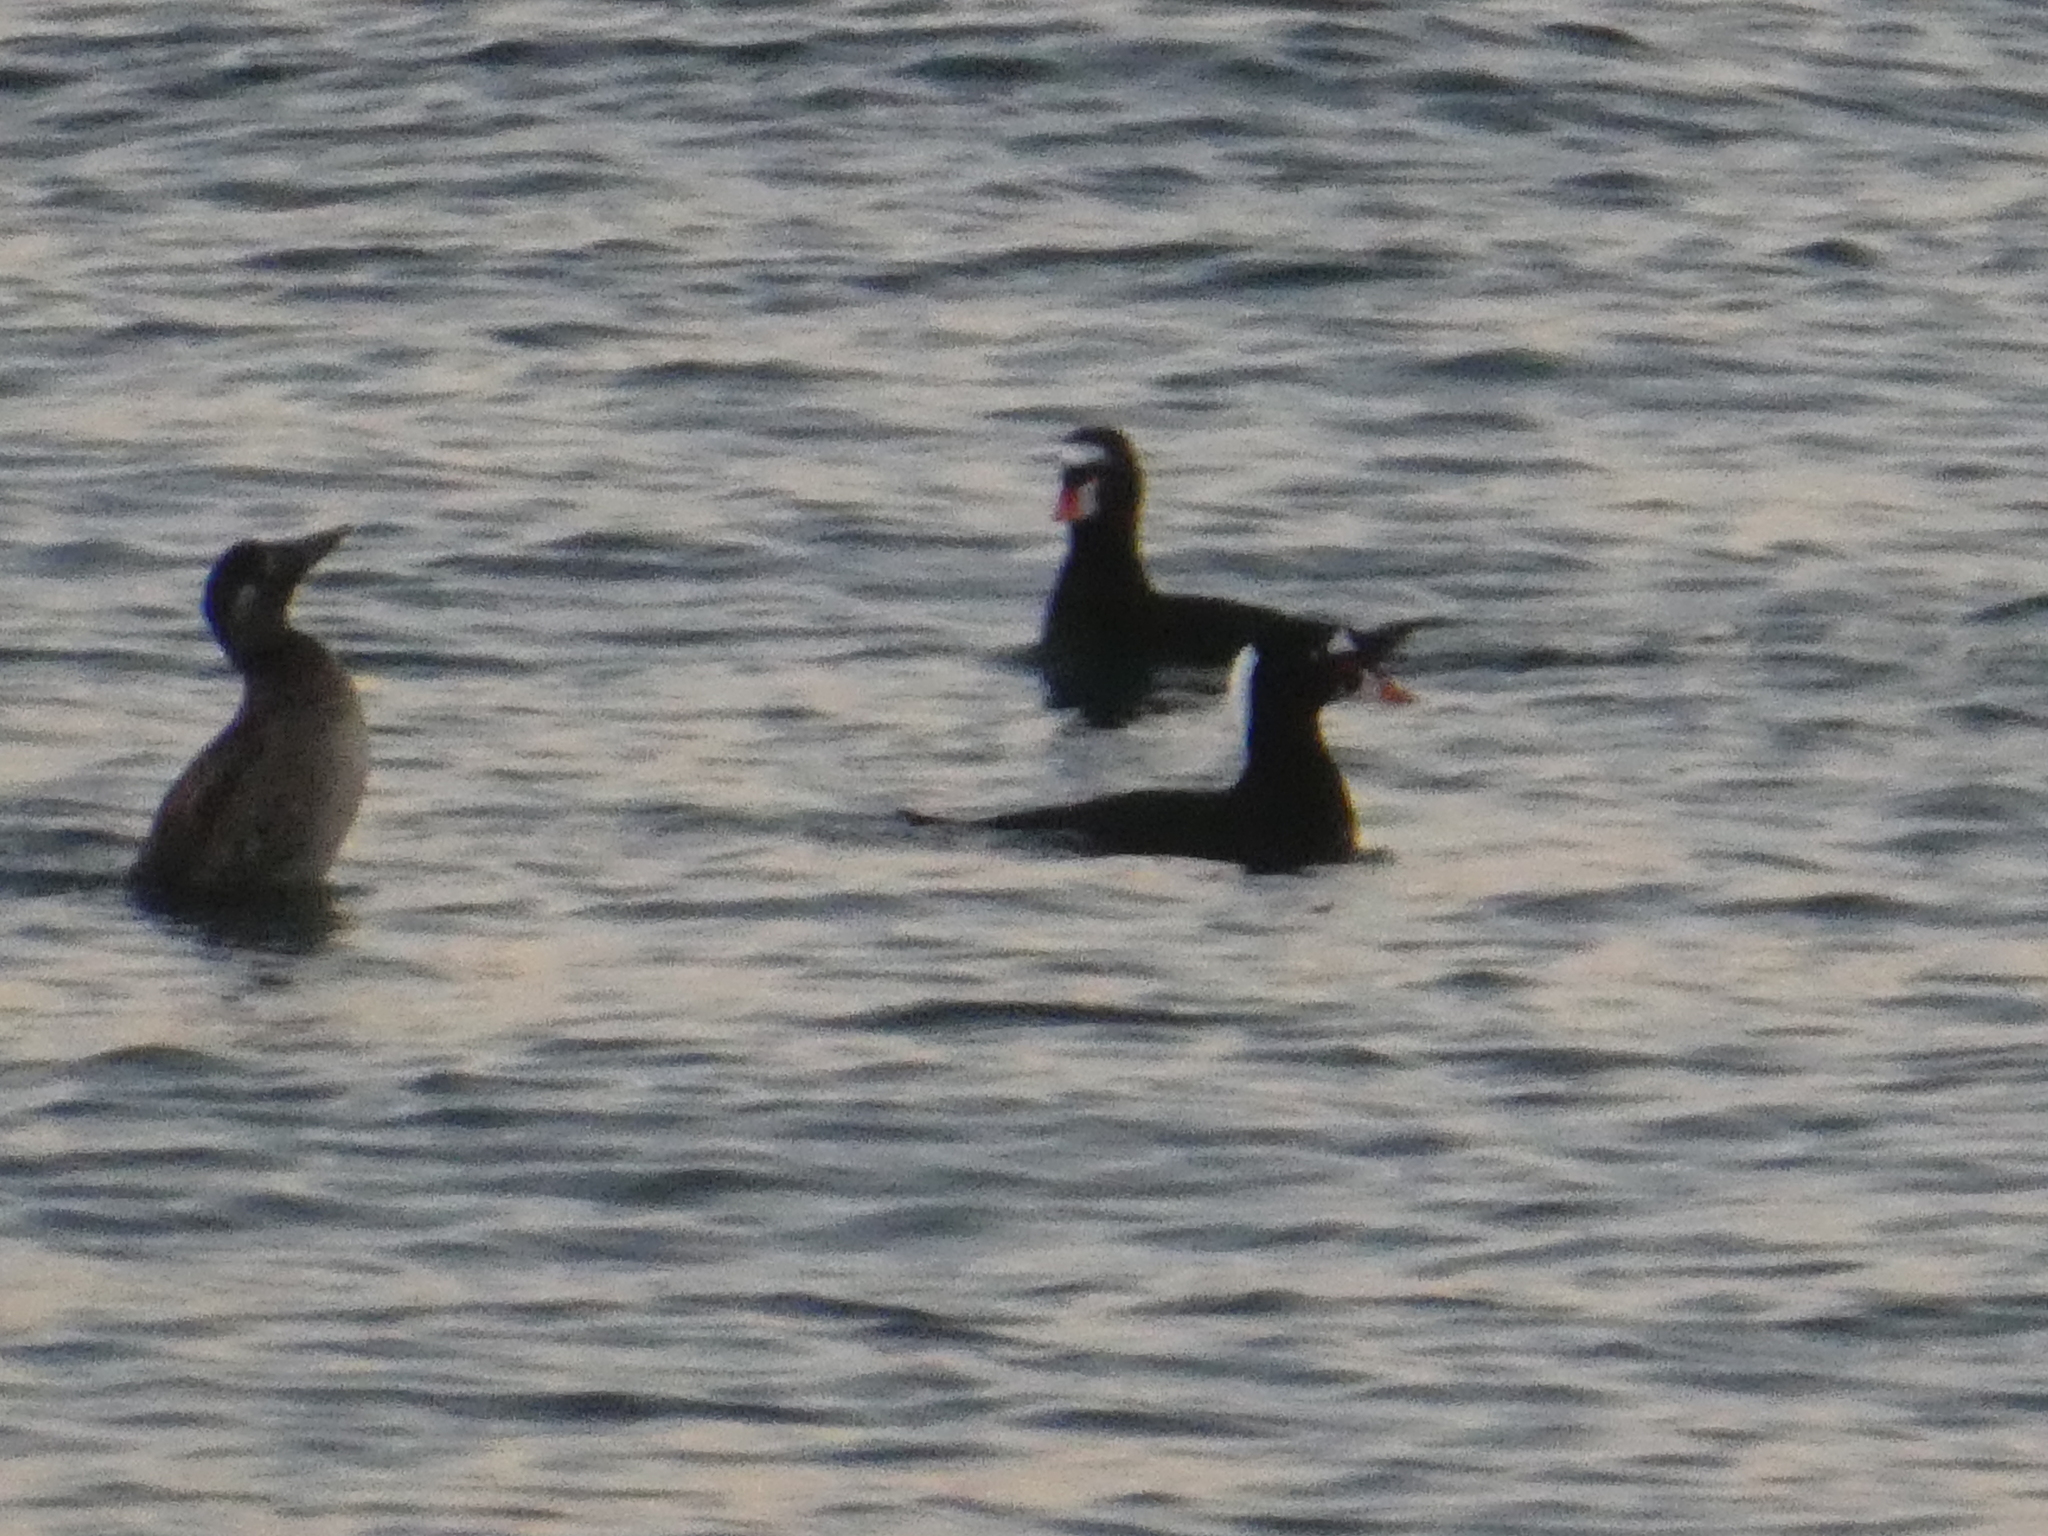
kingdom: Animalia
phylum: Chordata
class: Aves
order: Anseriformes
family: Anatidae
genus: Melanitta
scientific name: Melanitta perspicillata
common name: Surf scoter
